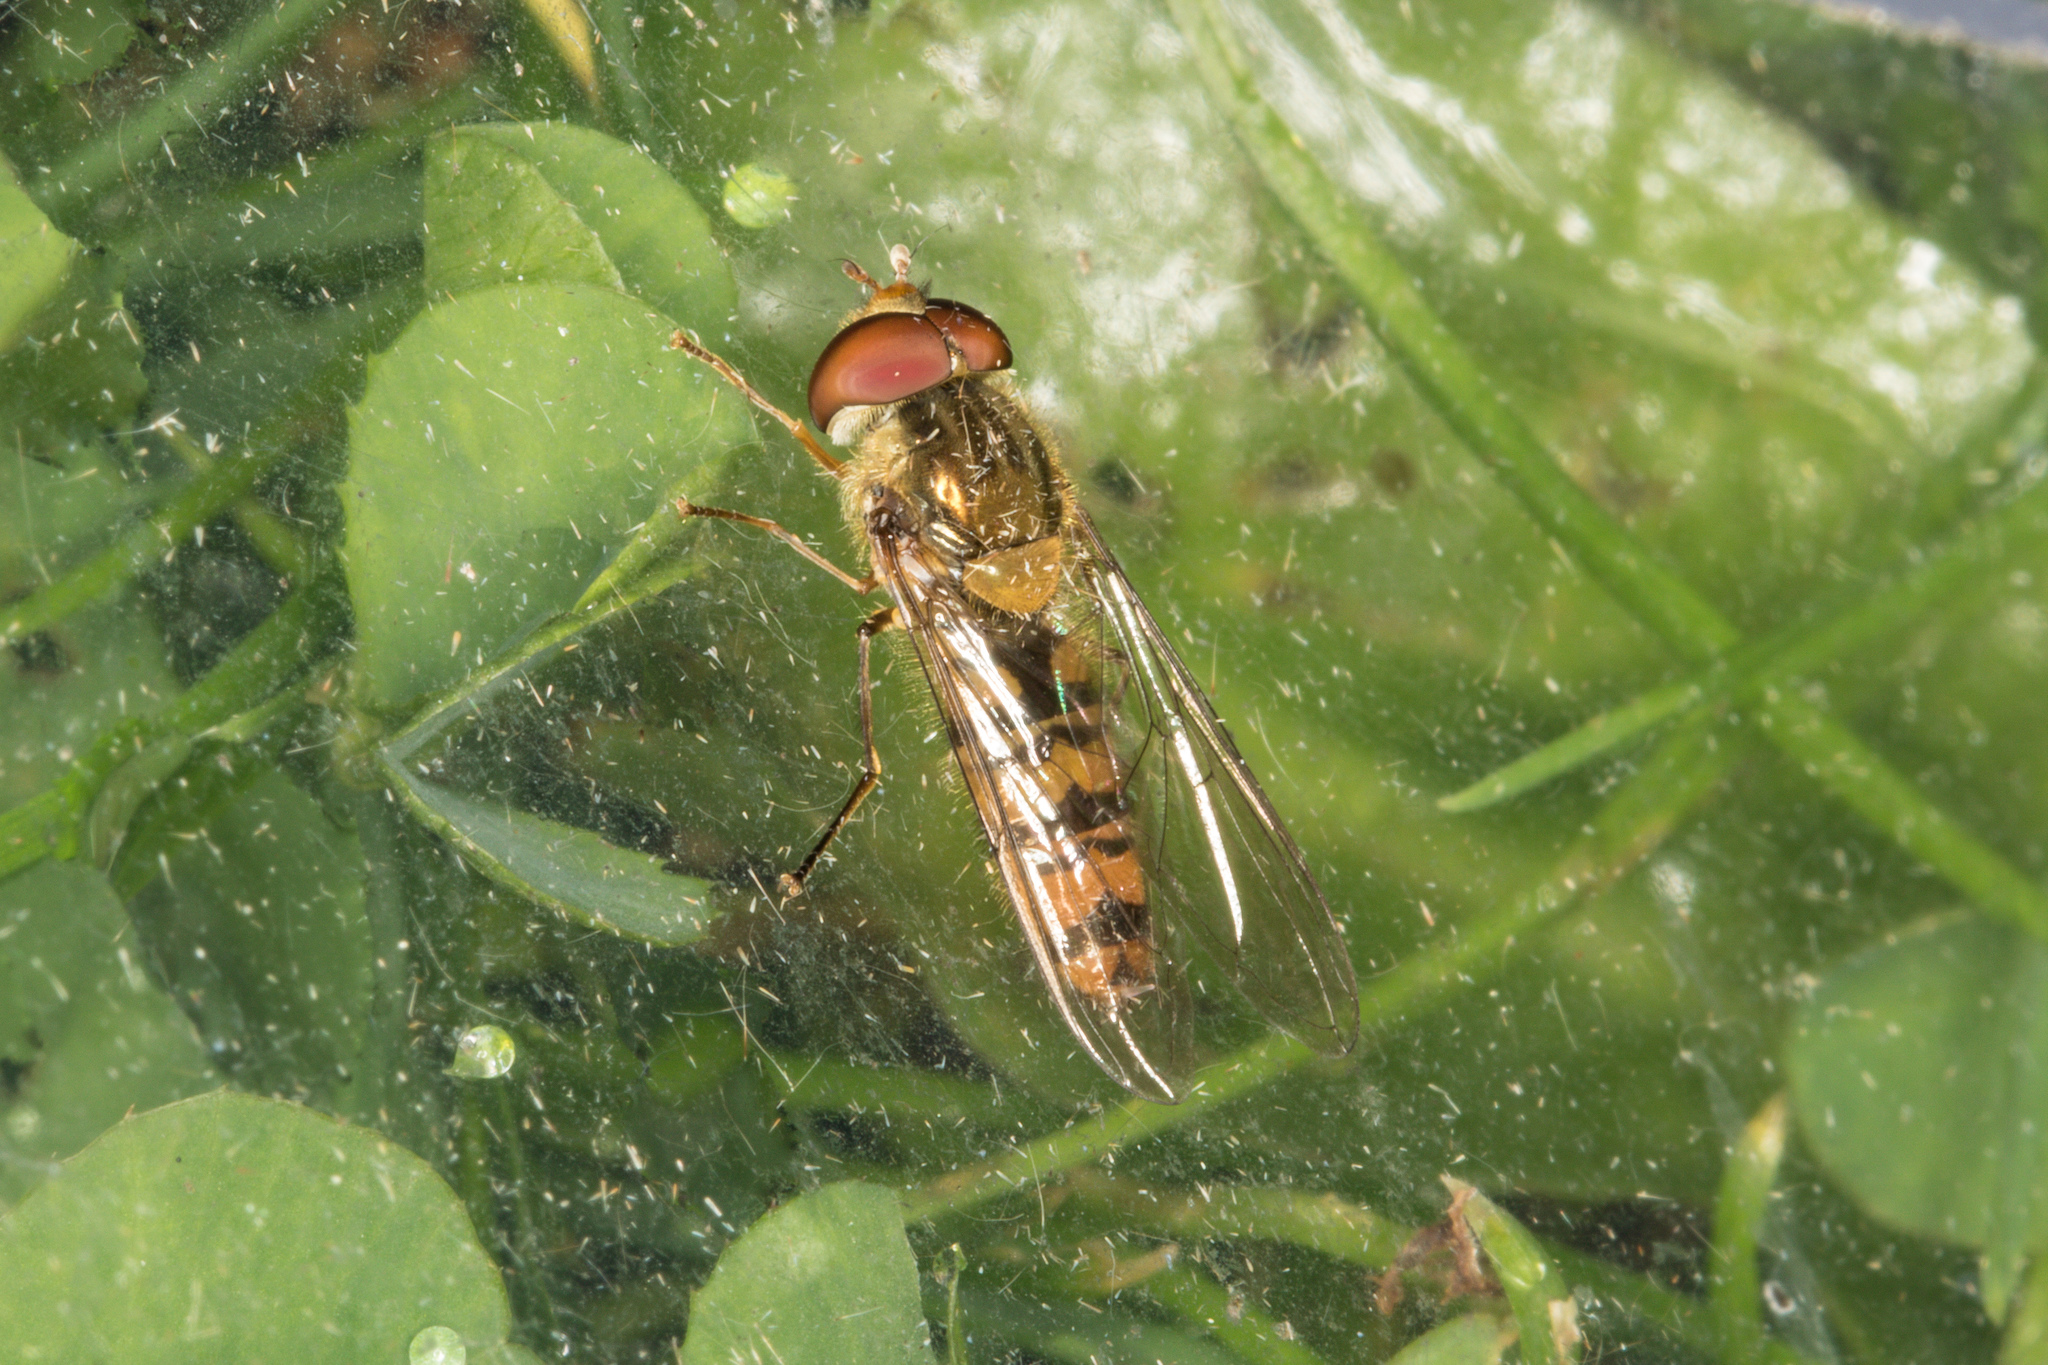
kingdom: Animalia
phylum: Arthropoda
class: Insecta
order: Diptera
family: Syrphidae
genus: Episyrphus
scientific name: Episyrphus balteatus
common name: Marmalade hoverfly
